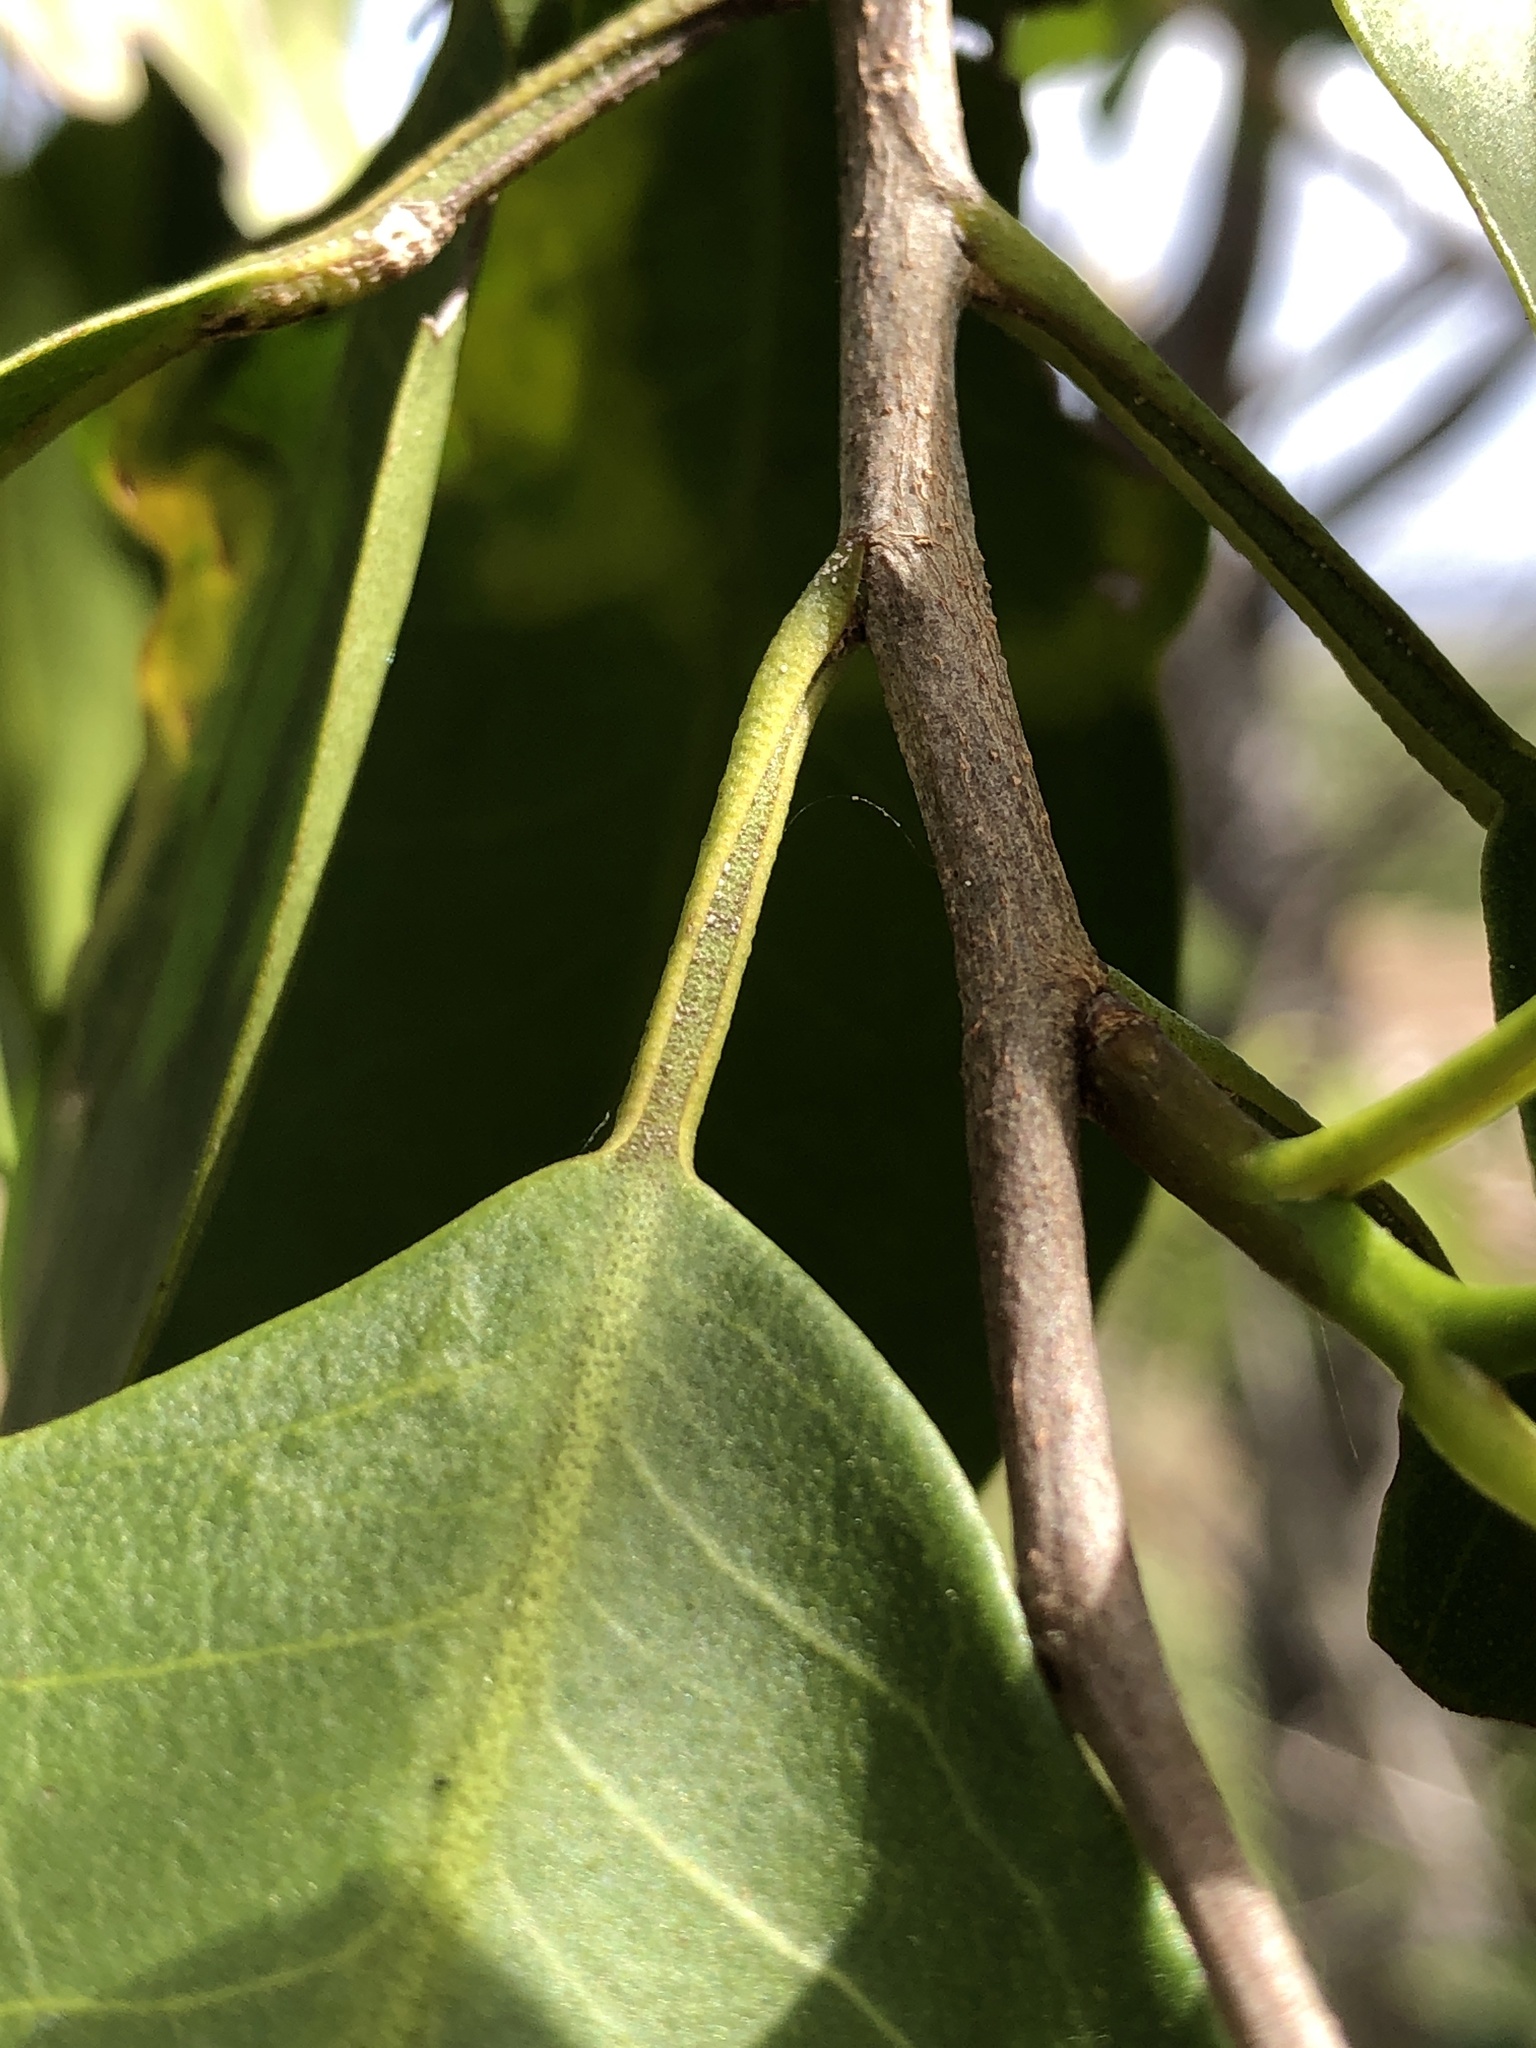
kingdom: Plantae
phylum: Tracheophyta
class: Magnoliopsida
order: Sapindales
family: Rutaceae
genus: Geijera
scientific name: Geijera salicifolia
